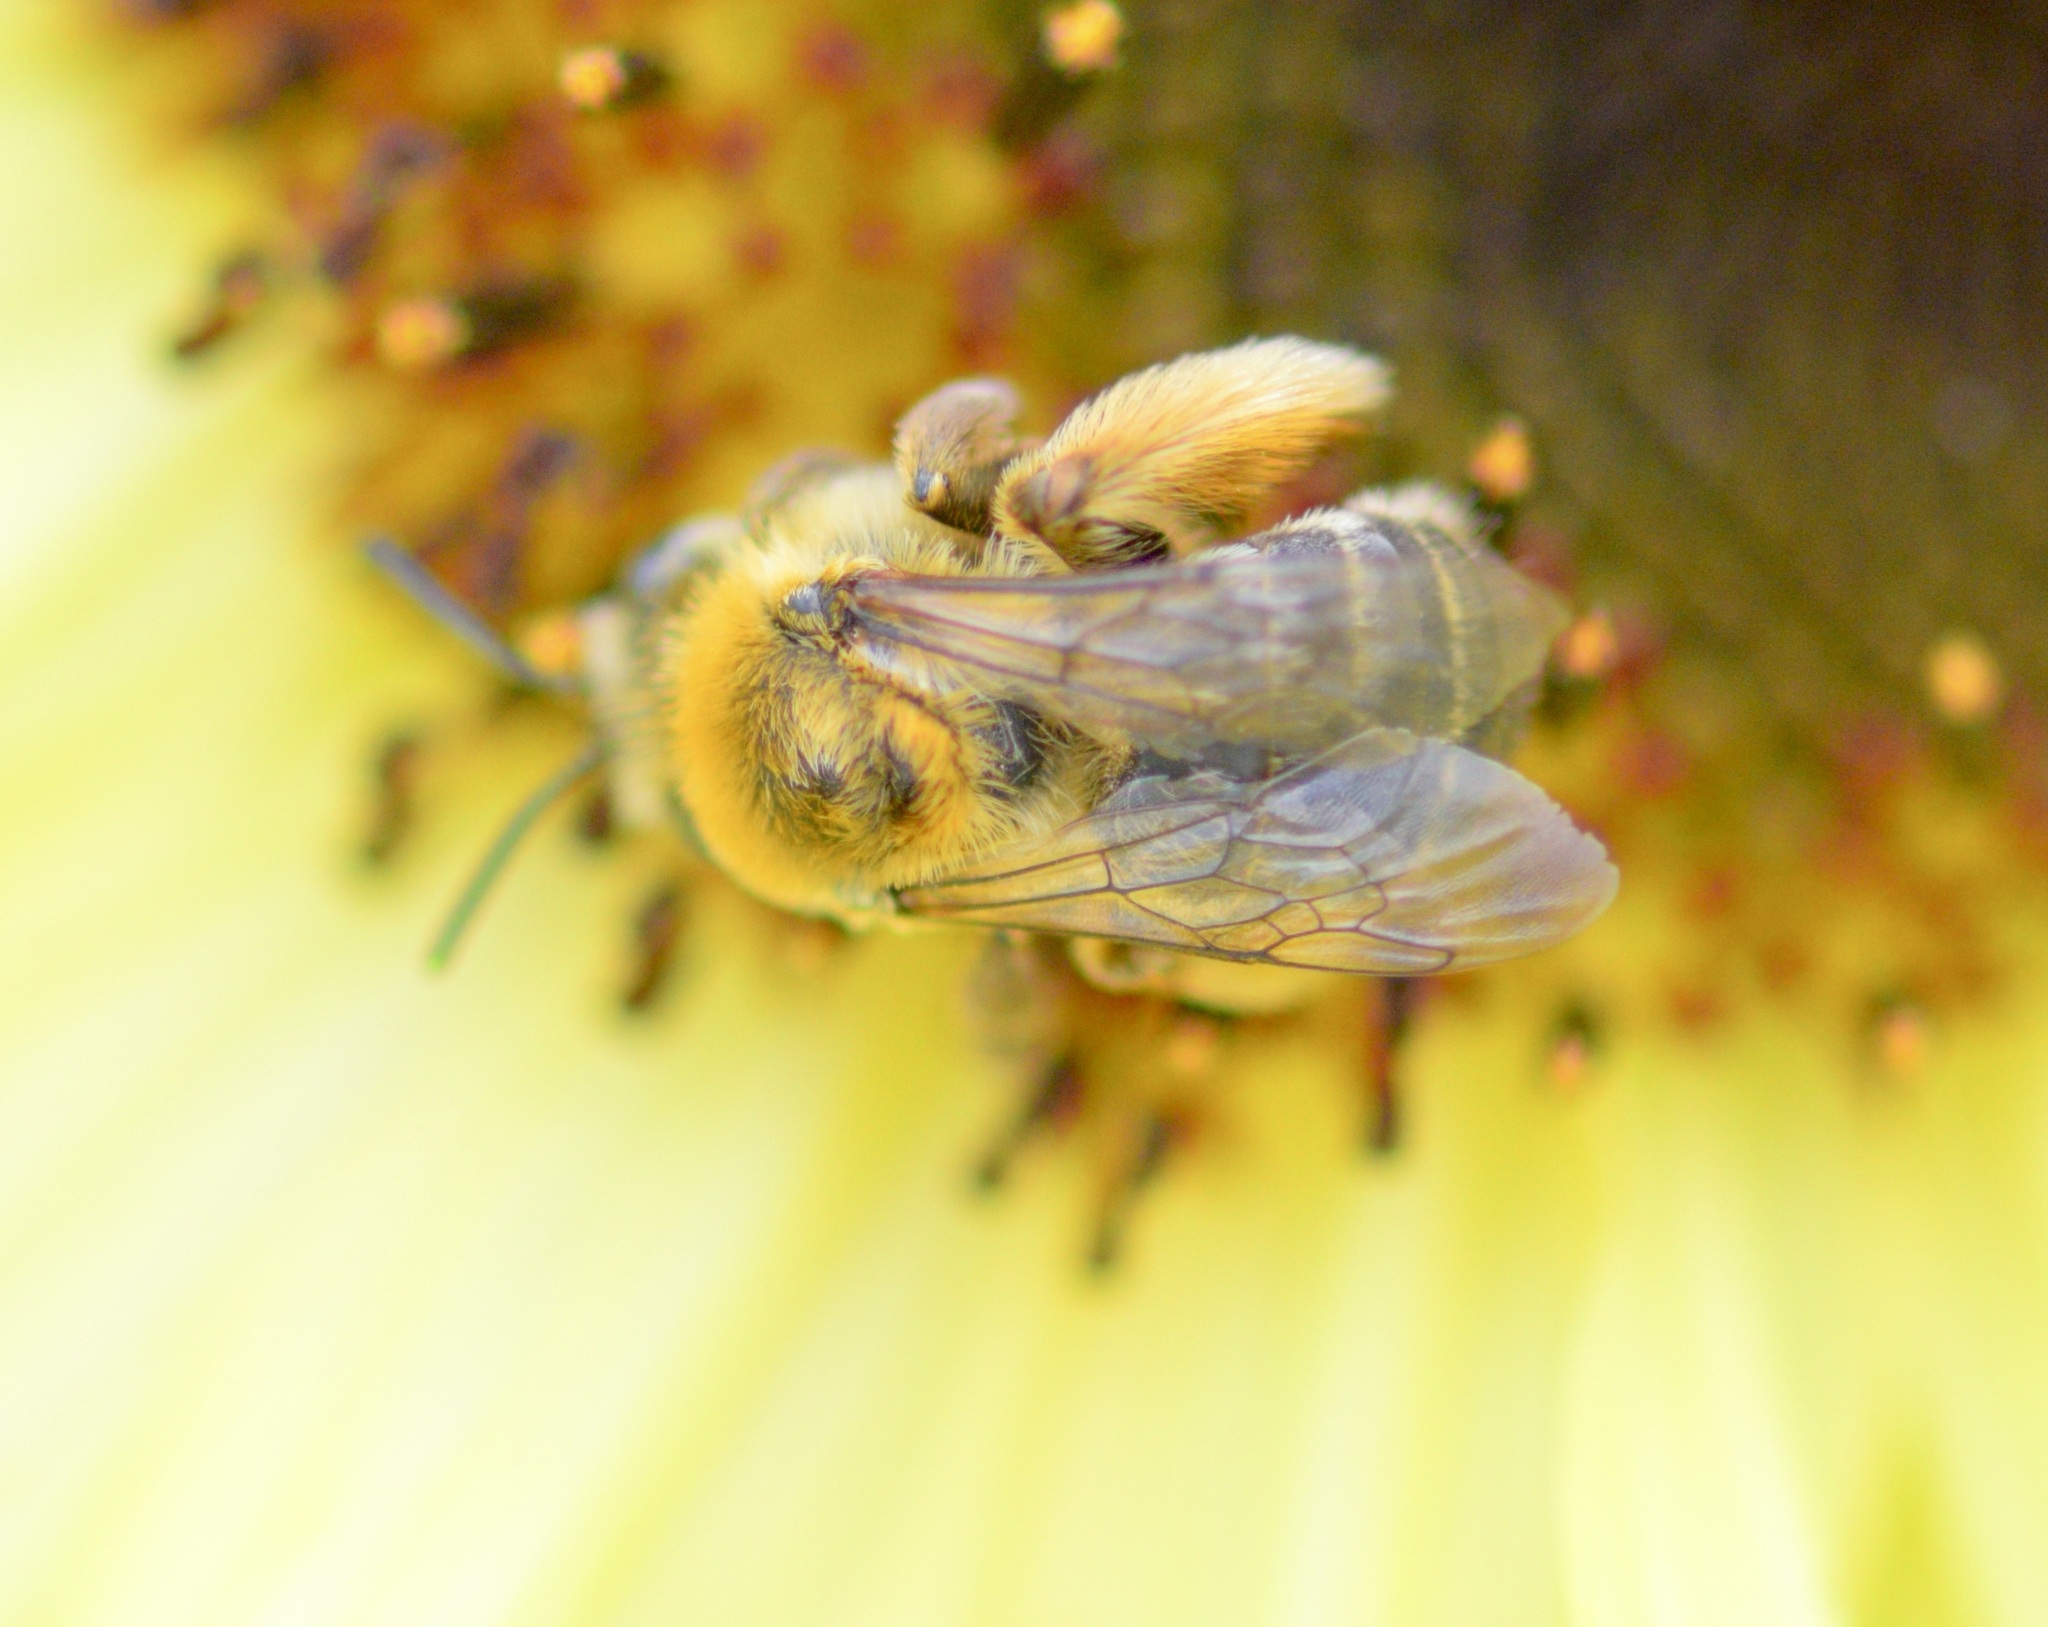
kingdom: Animalia
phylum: Arthropoda
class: Insecta
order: Hymenoptera
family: Apidae
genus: Melissodes
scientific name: Melissodes trinodis
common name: Dark-veined longhorn
